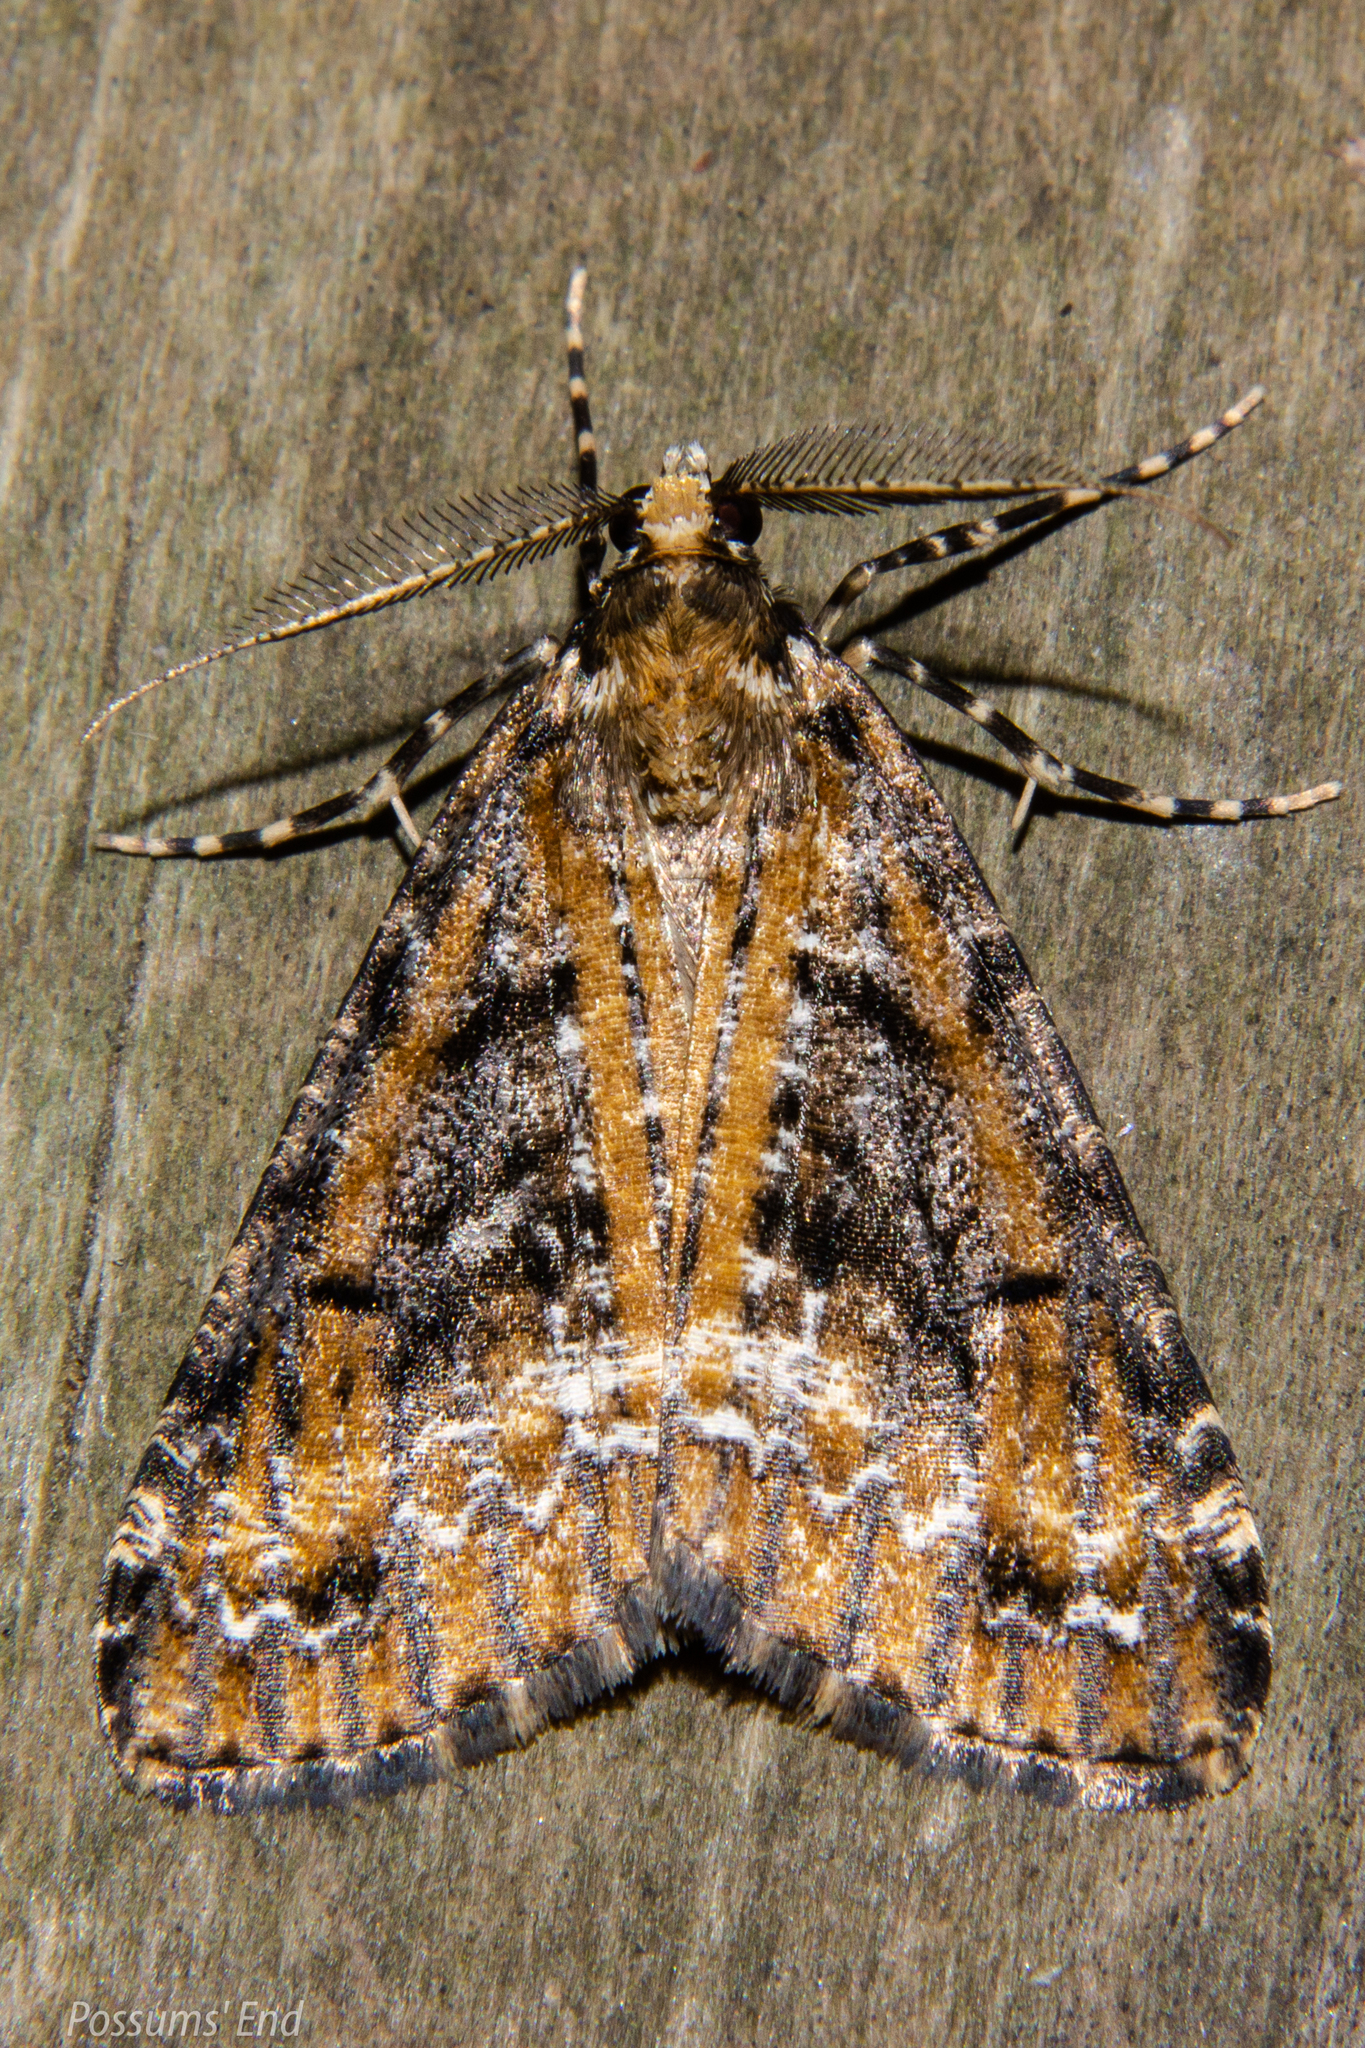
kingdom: Animalia
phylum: Arthropoda
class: Insecta
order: Lepidoptera
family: Geometridae
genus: Pseudocoremia
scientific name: Pseudocoremia leucelaea
